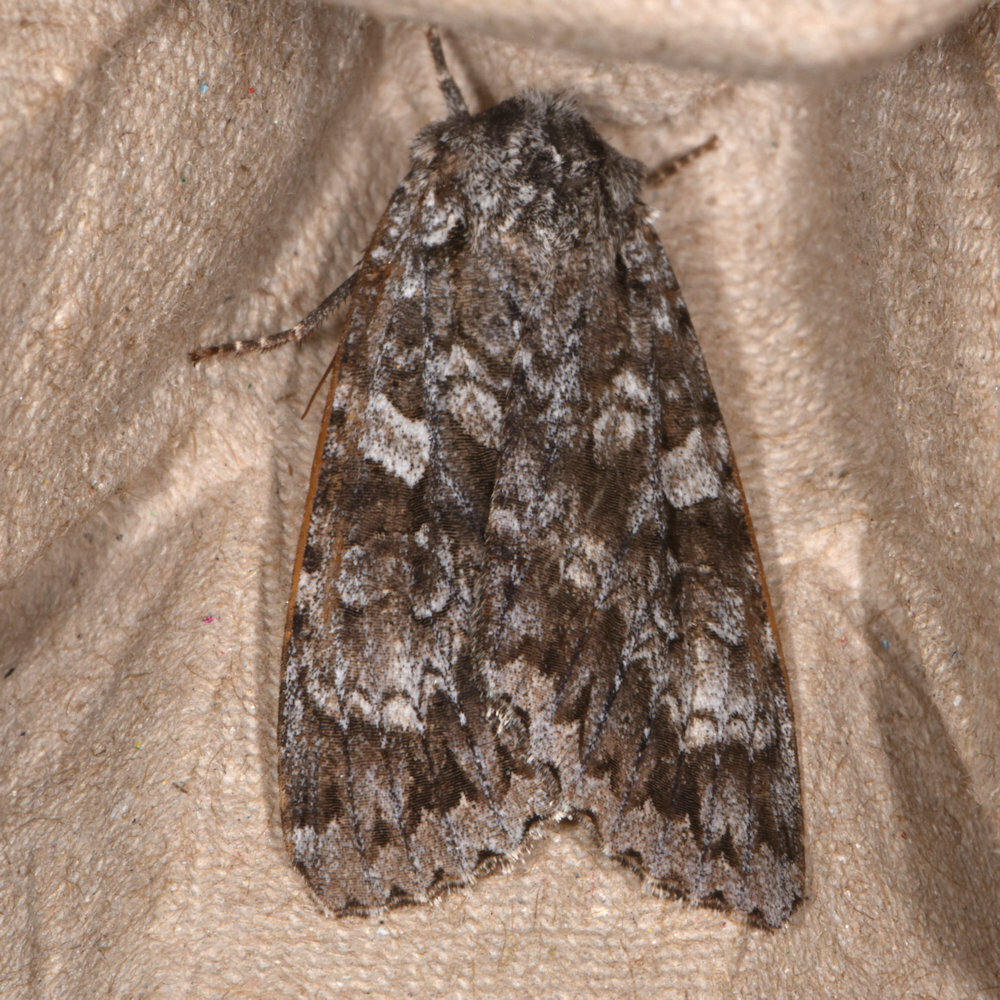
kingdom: Animalia
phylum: Arthropoda
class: Insecta
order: Lepidoptera
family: Noctuidae
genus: Eurois
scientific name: Eurois occulta
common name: Great brocade
